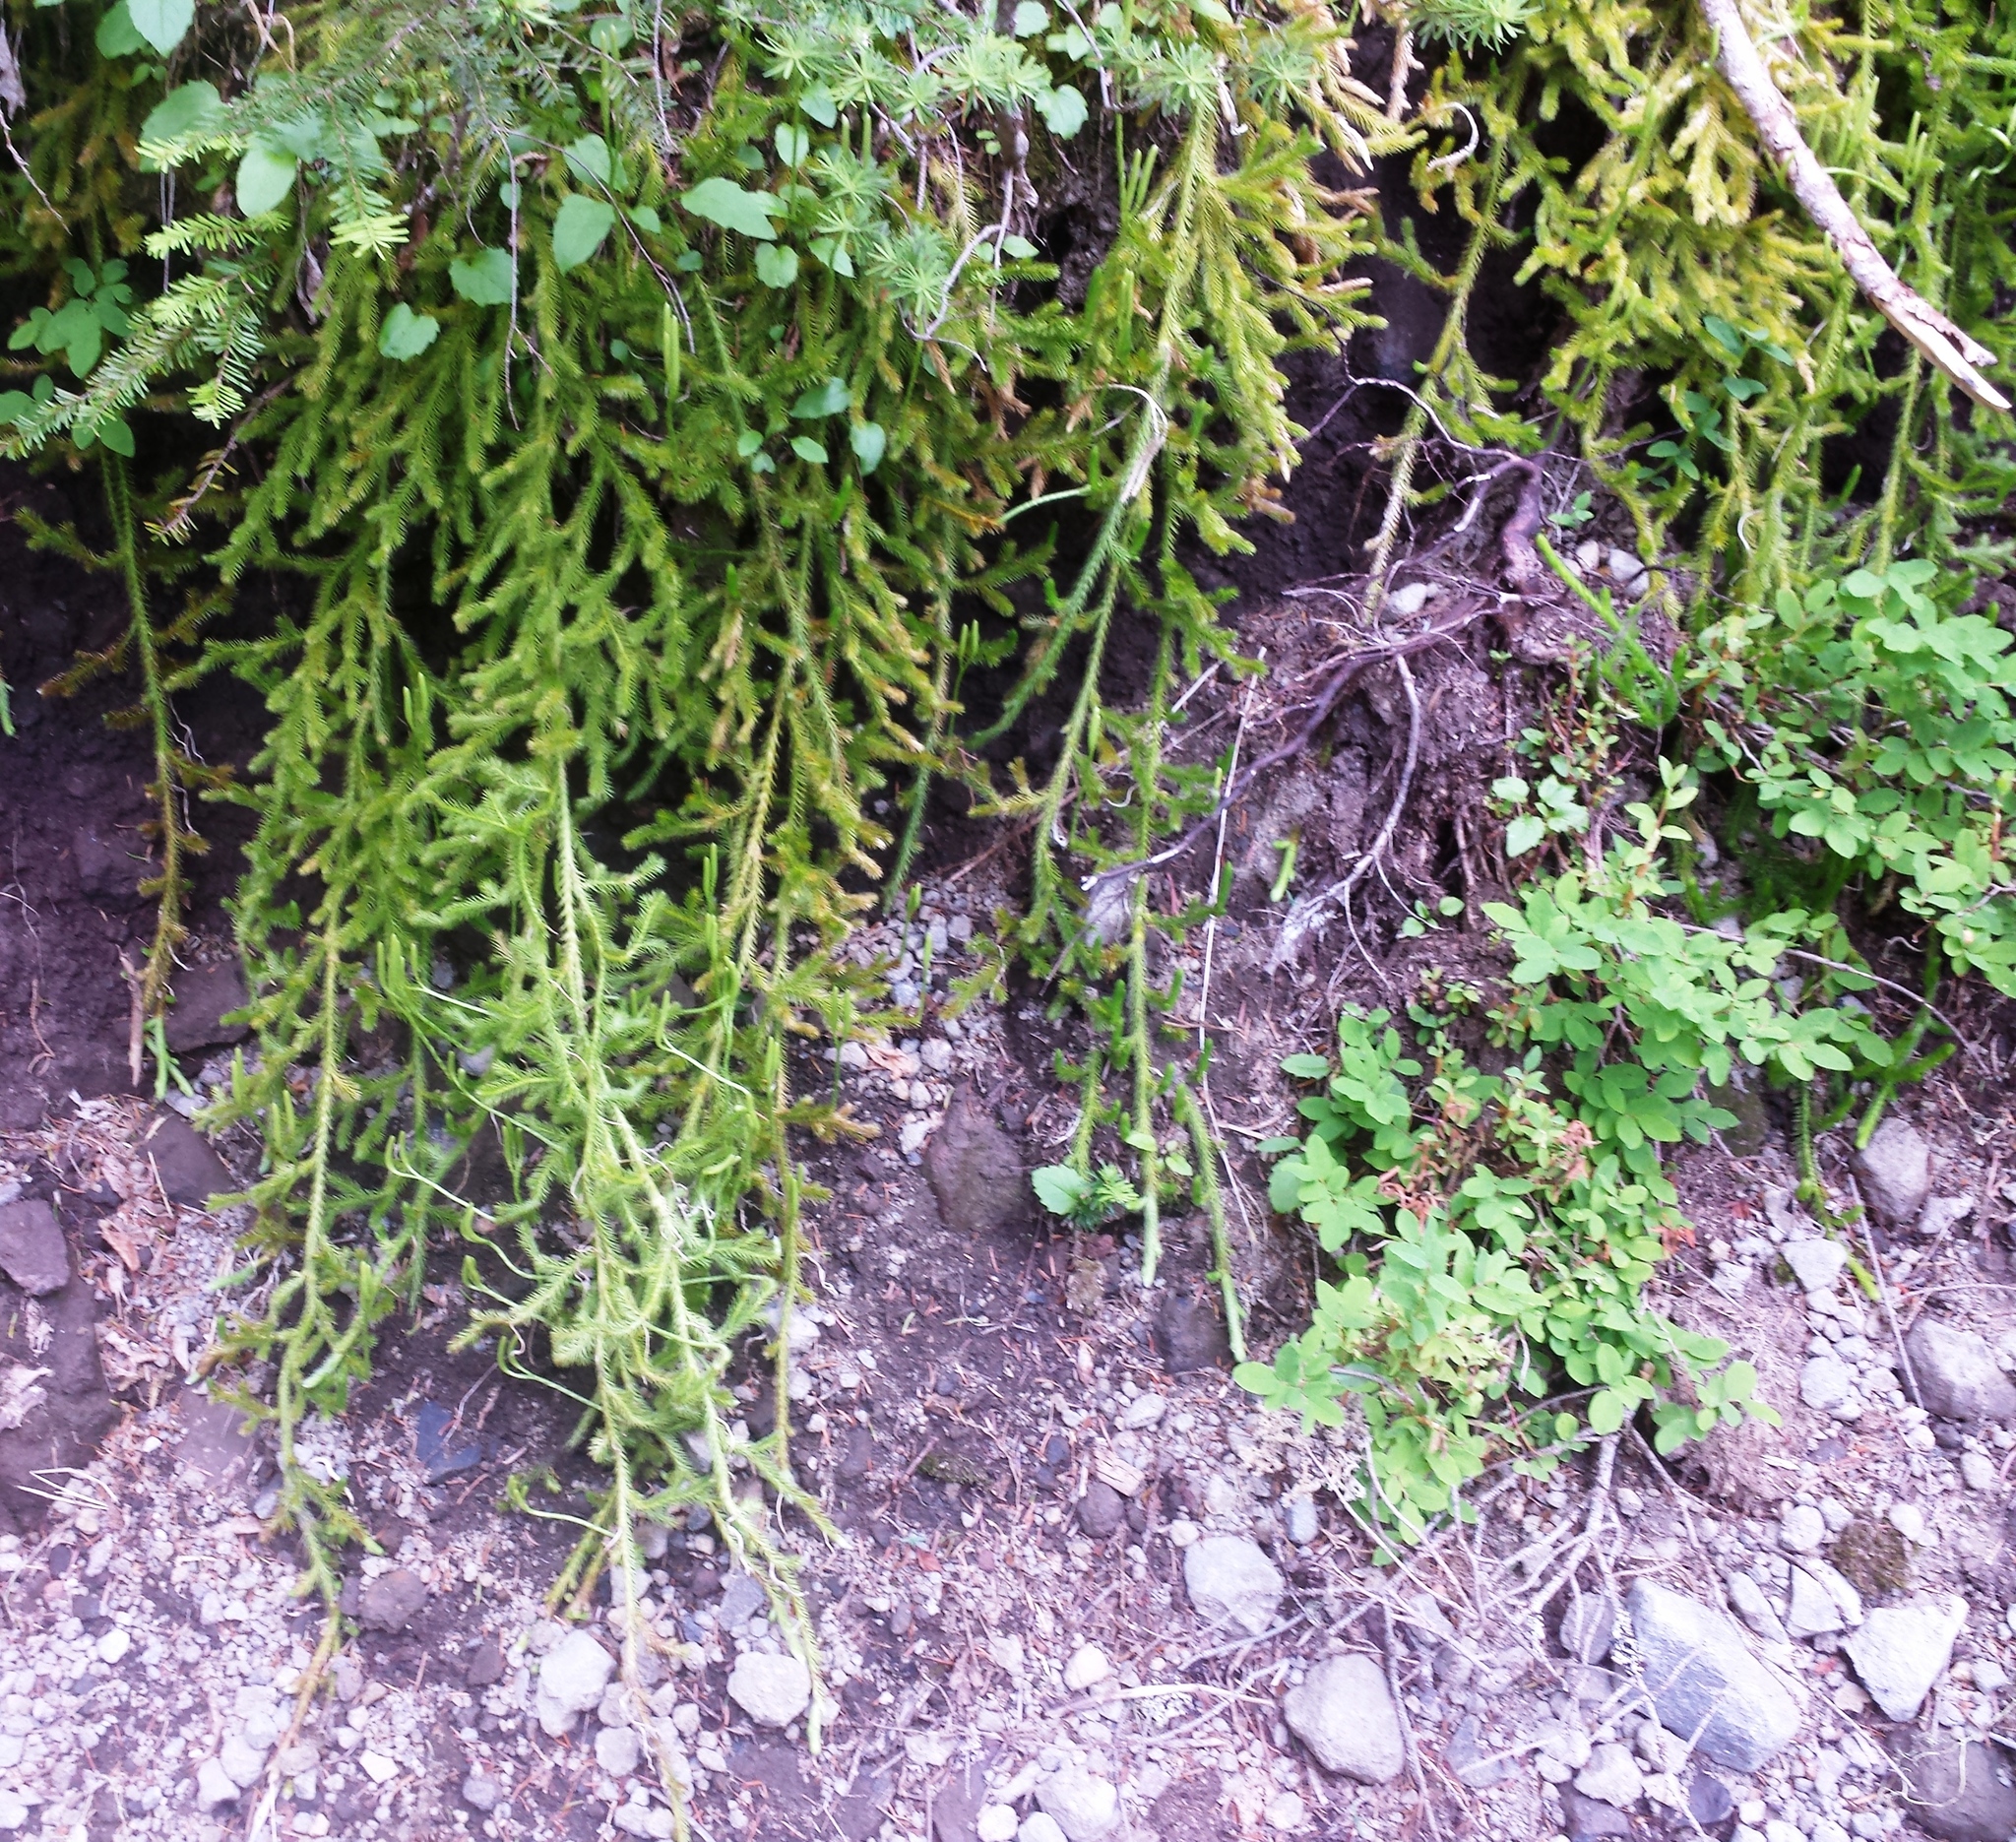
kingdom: Plantae
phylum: Tracheophyta
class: Lycopodiopsida
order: Lycopodiales
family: Lycopodiaceae
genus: Lycopodium
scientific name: Lycopodium clavatum
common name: Stag's-horn clubmoss
